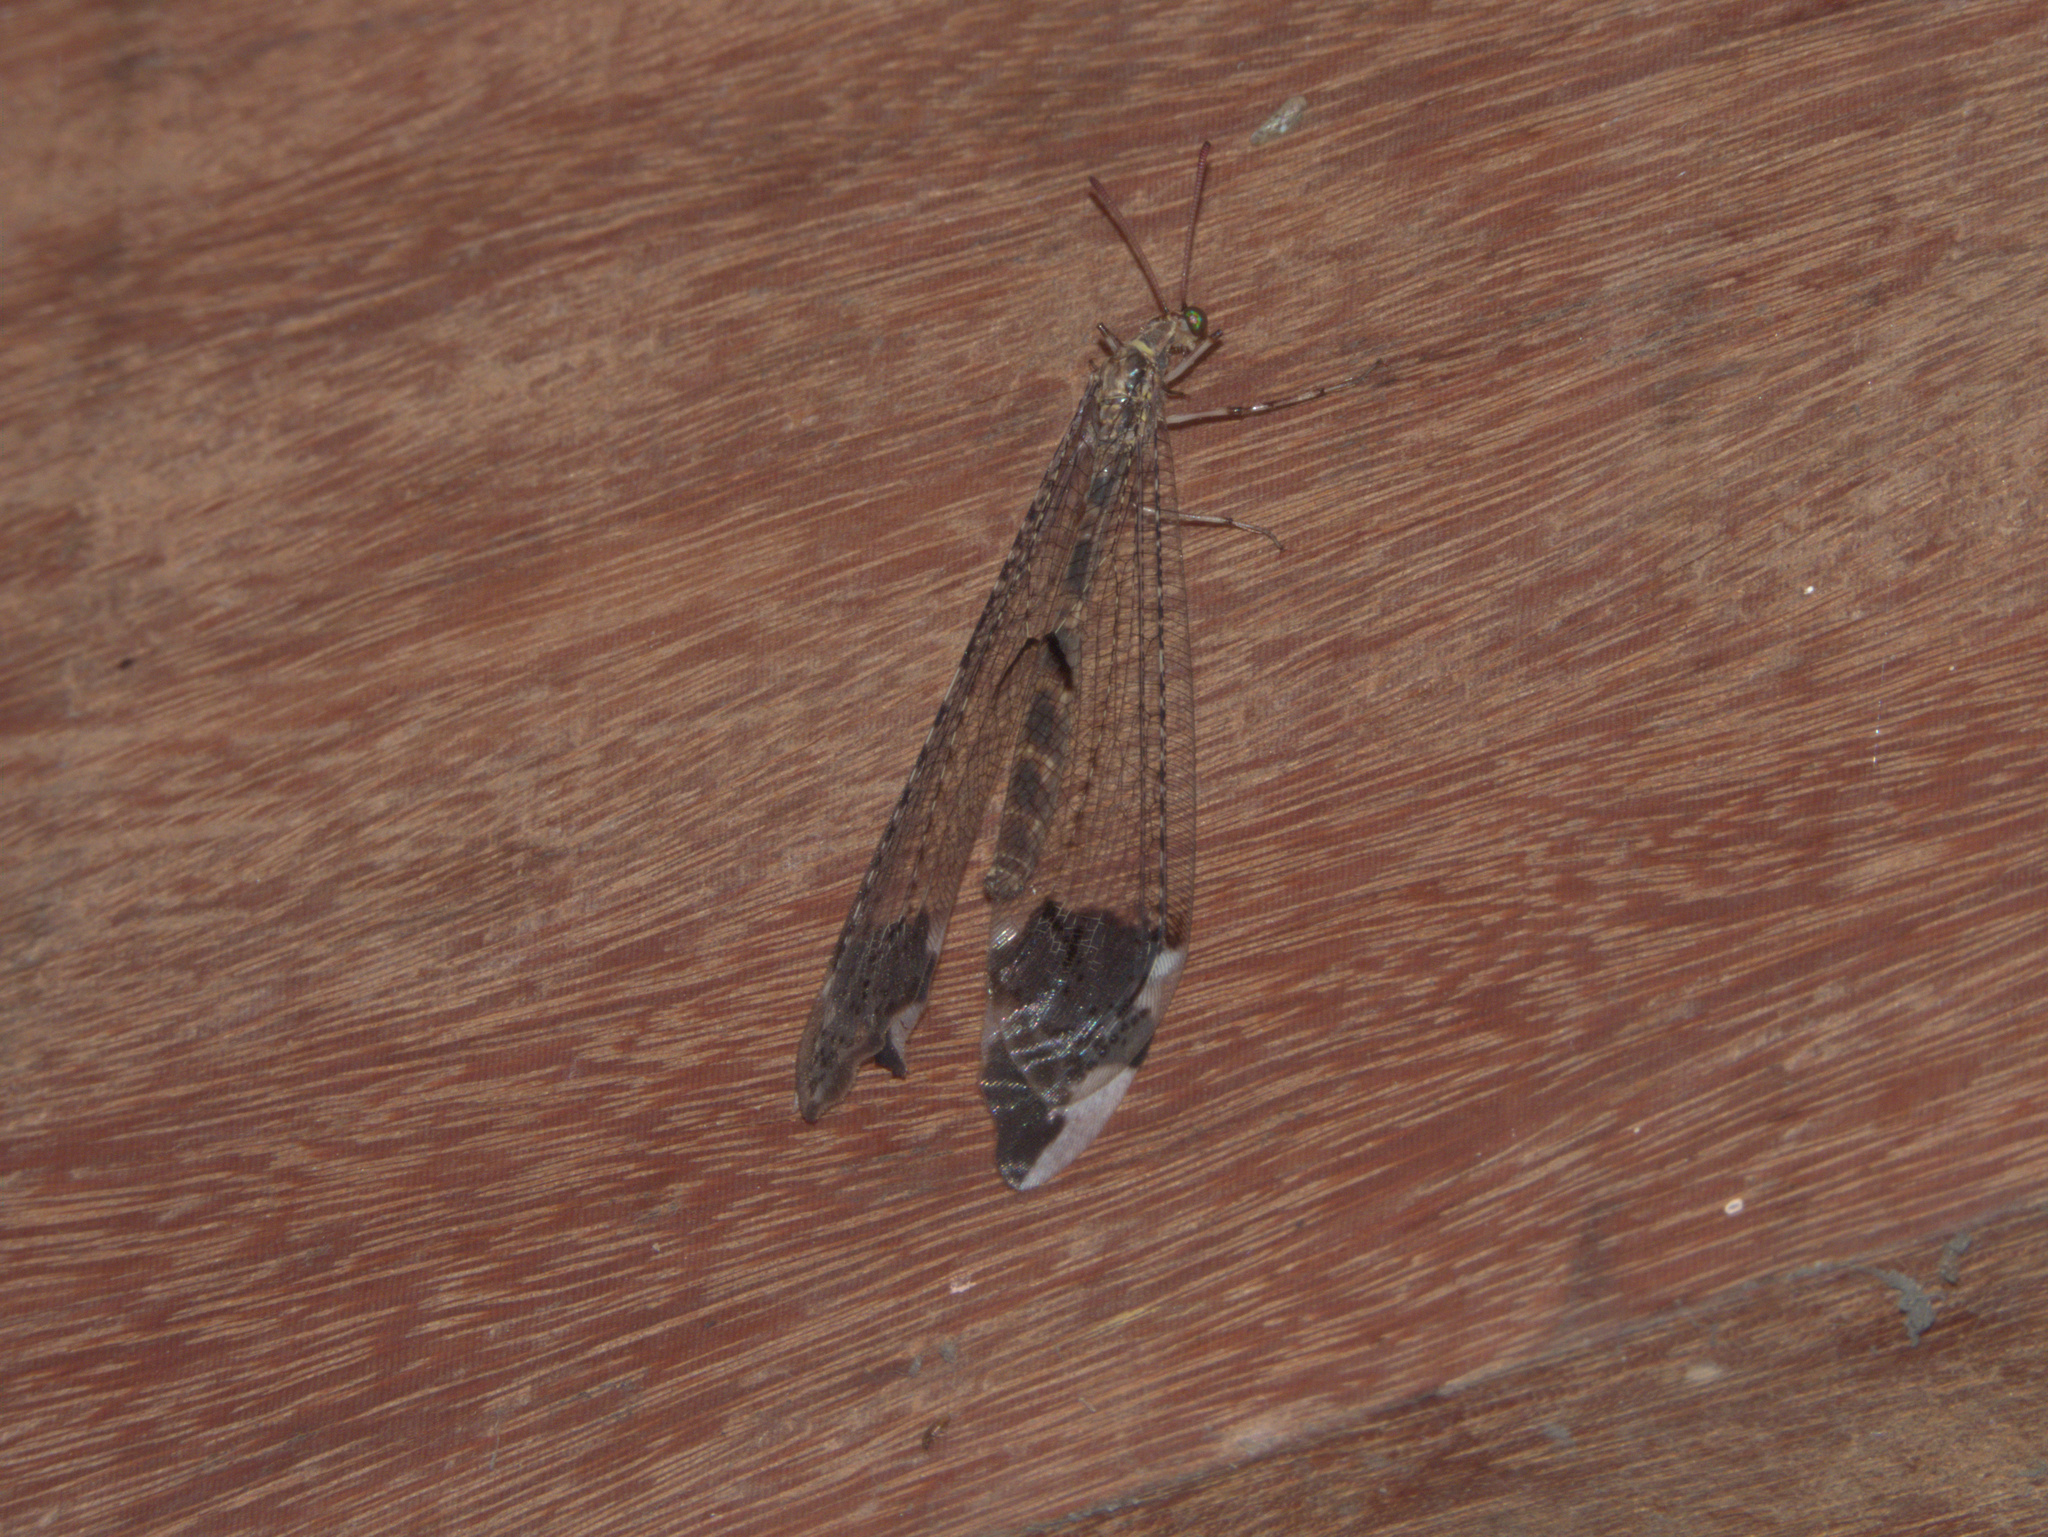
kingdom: Animalia
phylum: Arthropoda
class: Insecta
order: Neuroptera
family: Myrmeleontidae
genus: Glenurus
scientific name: Glenurus heteropteryx
